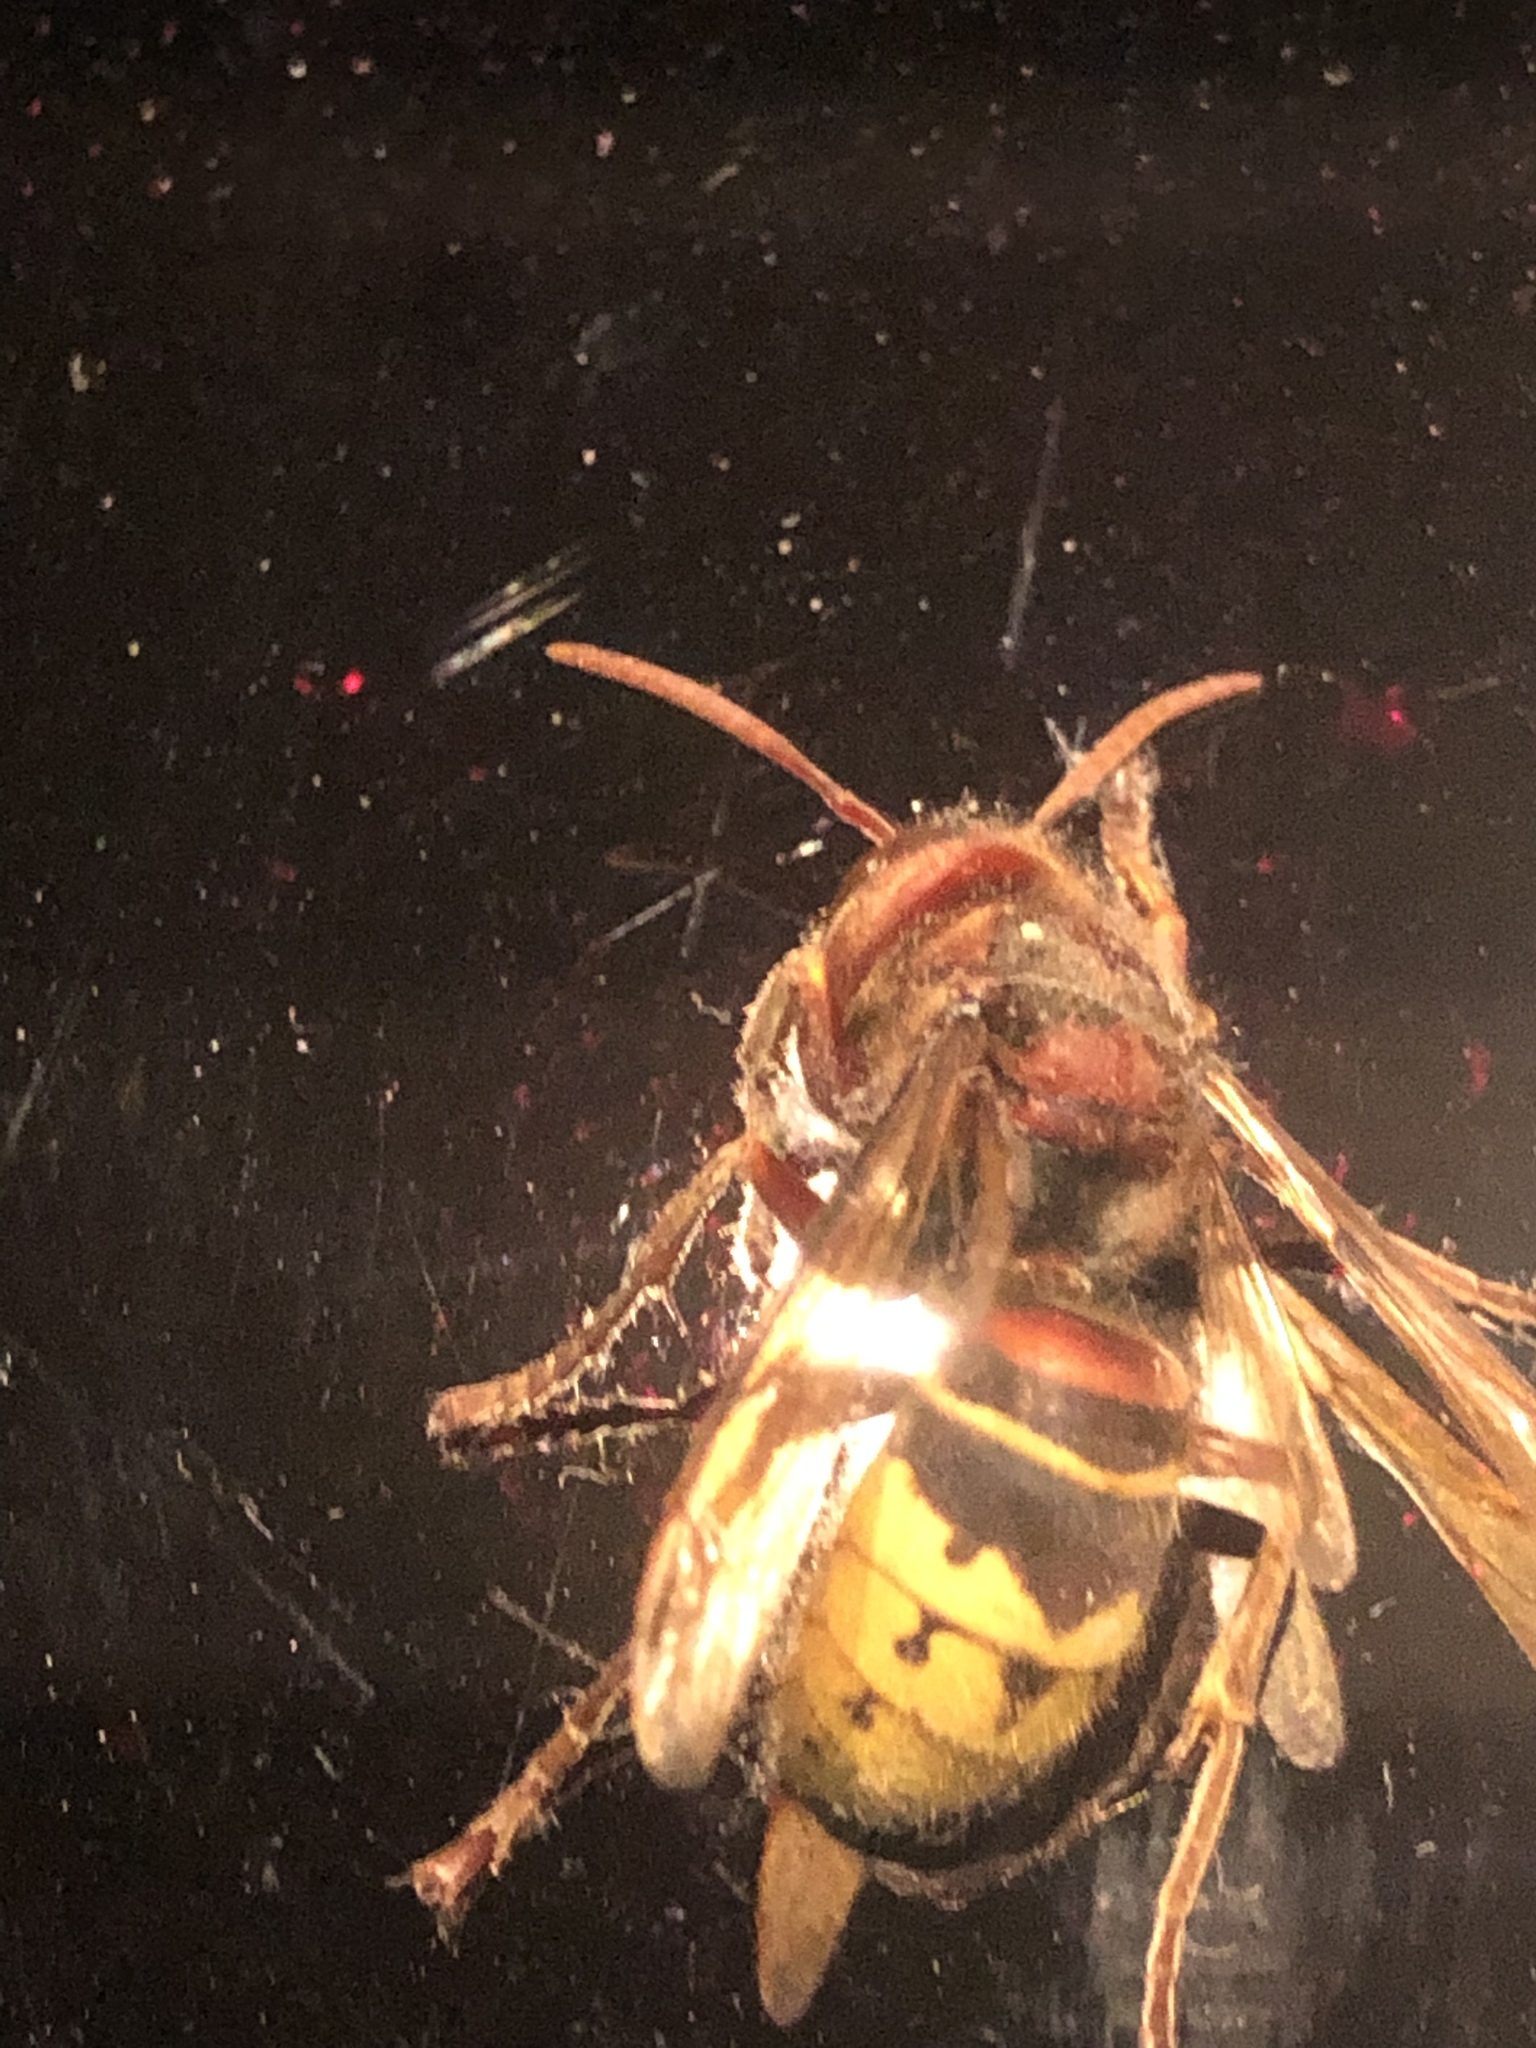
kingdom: Animalia
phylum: Arthropoda
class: Insecta
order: Hymenoptera
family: Vespidae
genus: Vespa
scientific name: Vespa crabro
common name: Hornet
